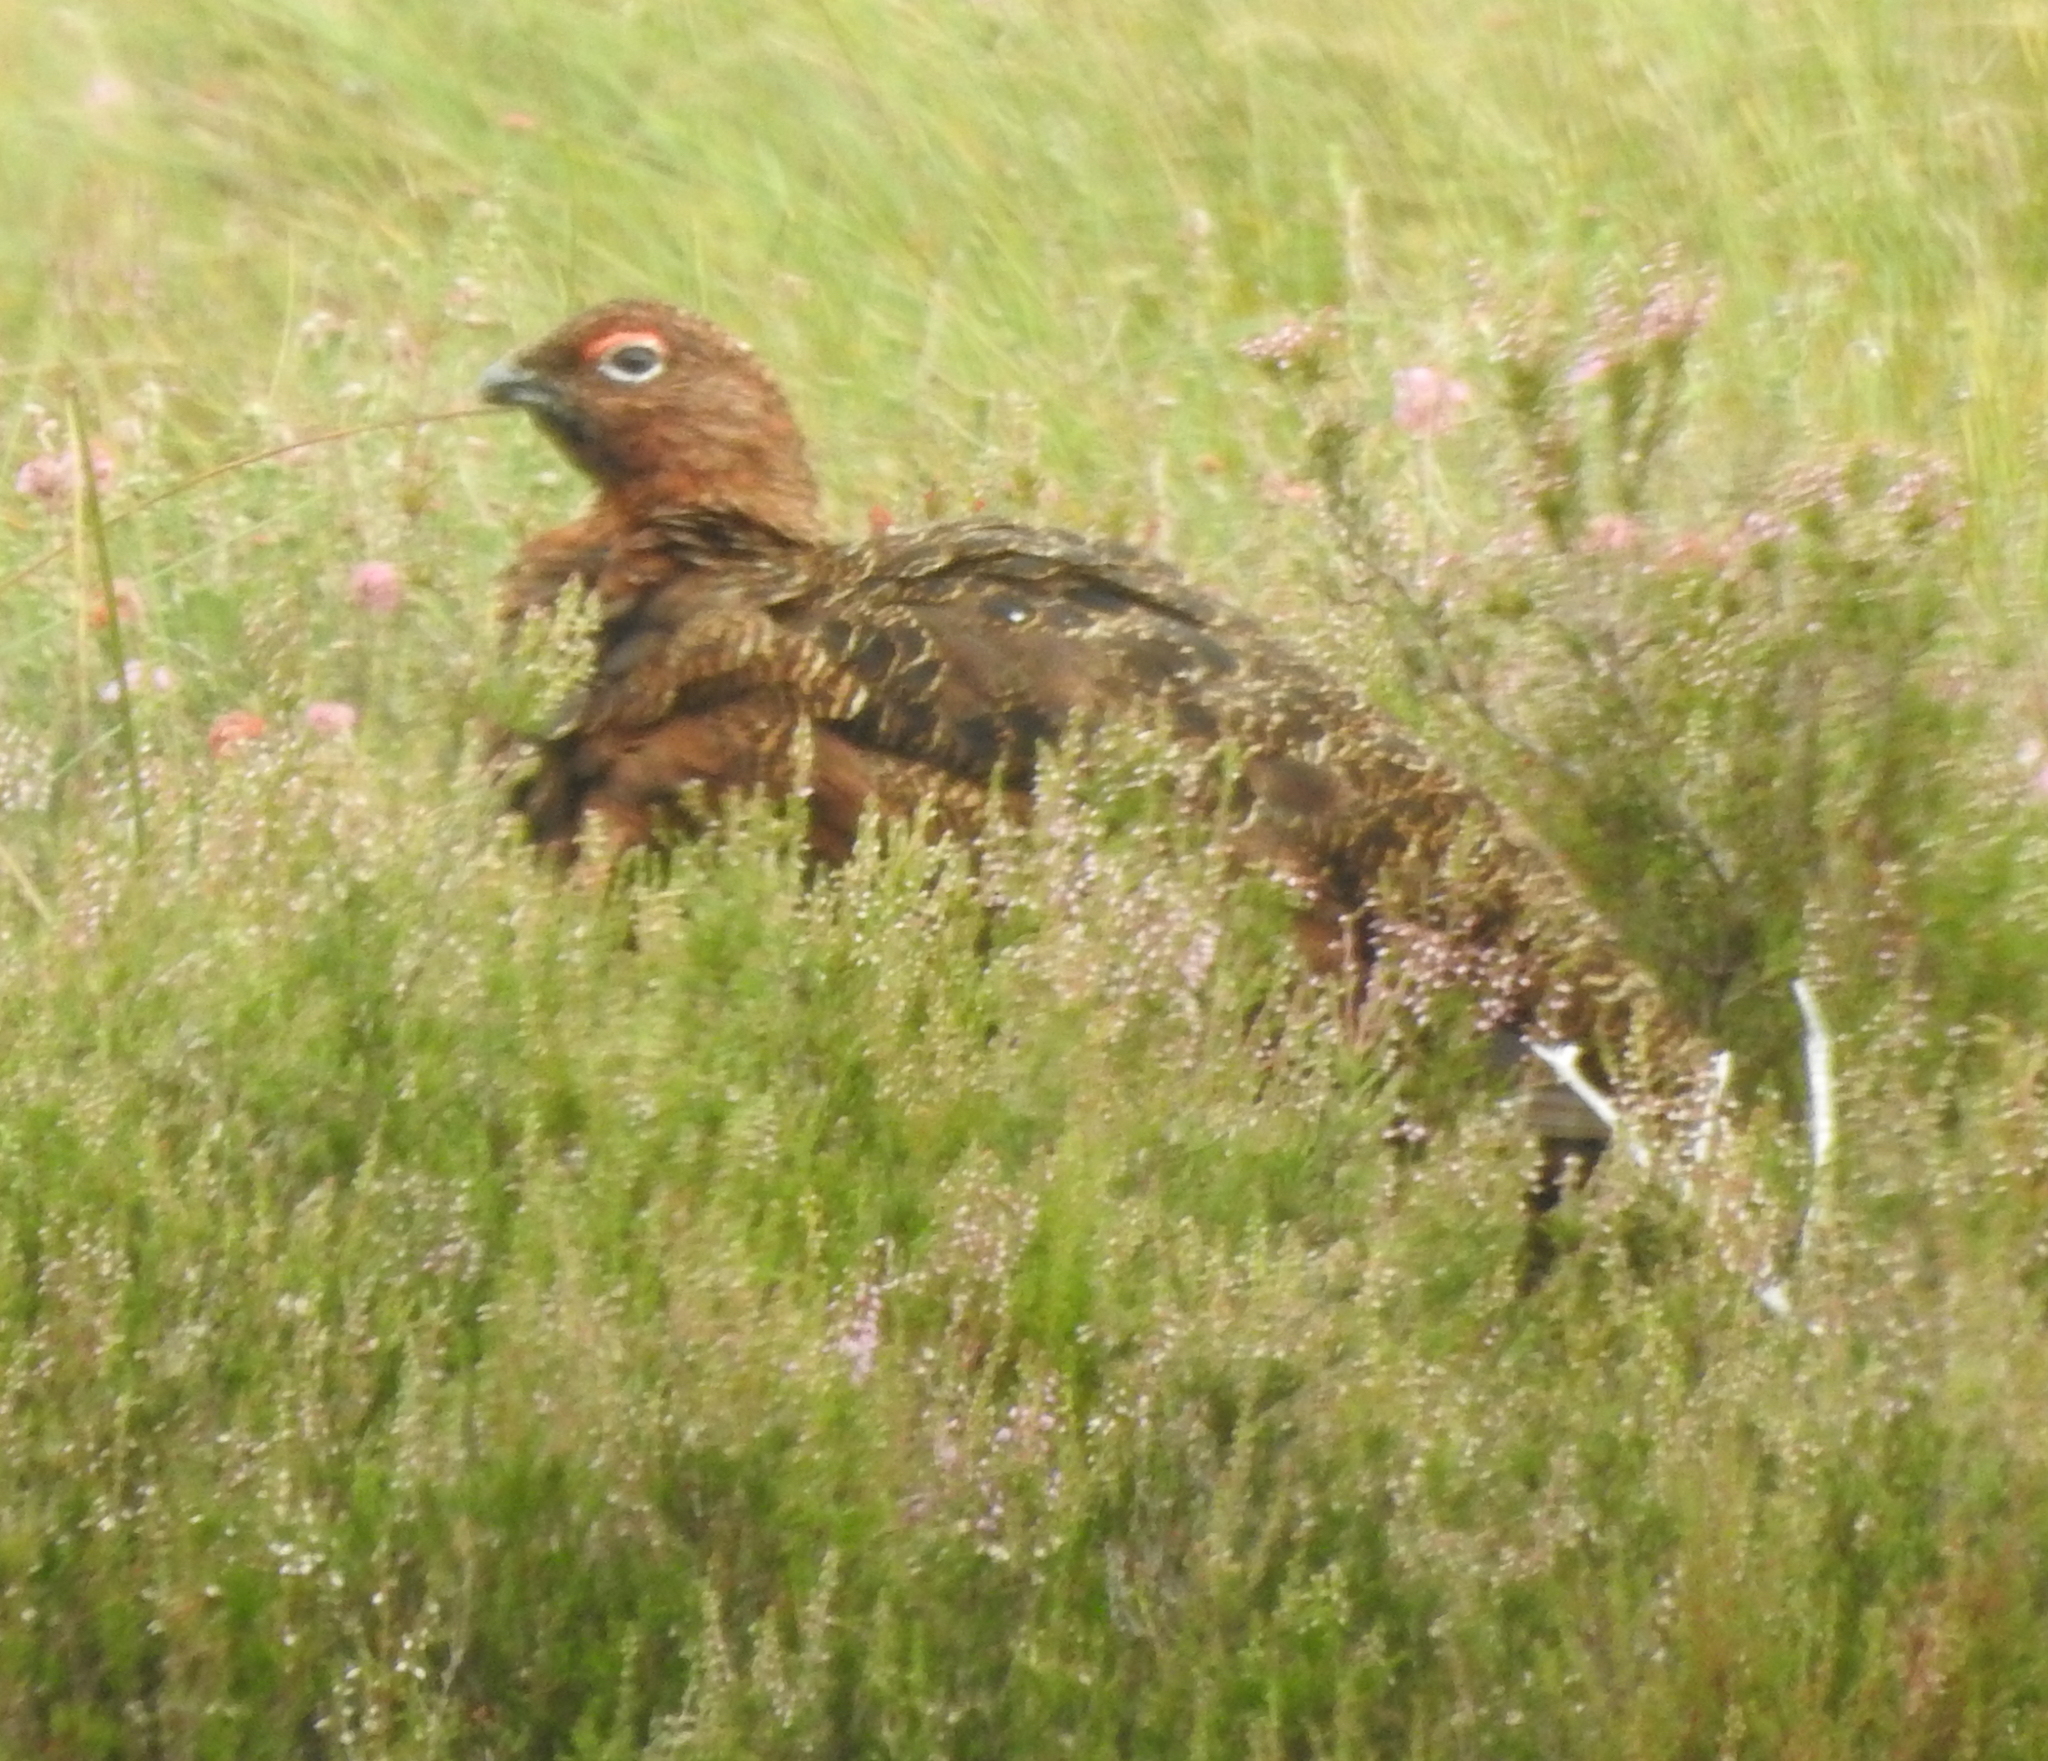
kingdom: Animalia
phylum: Chordata
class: Aves
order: Galliformes
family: Phasianidae
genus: Lagopus
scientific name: Lagopus lagopus
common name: Willow ptarmigan
